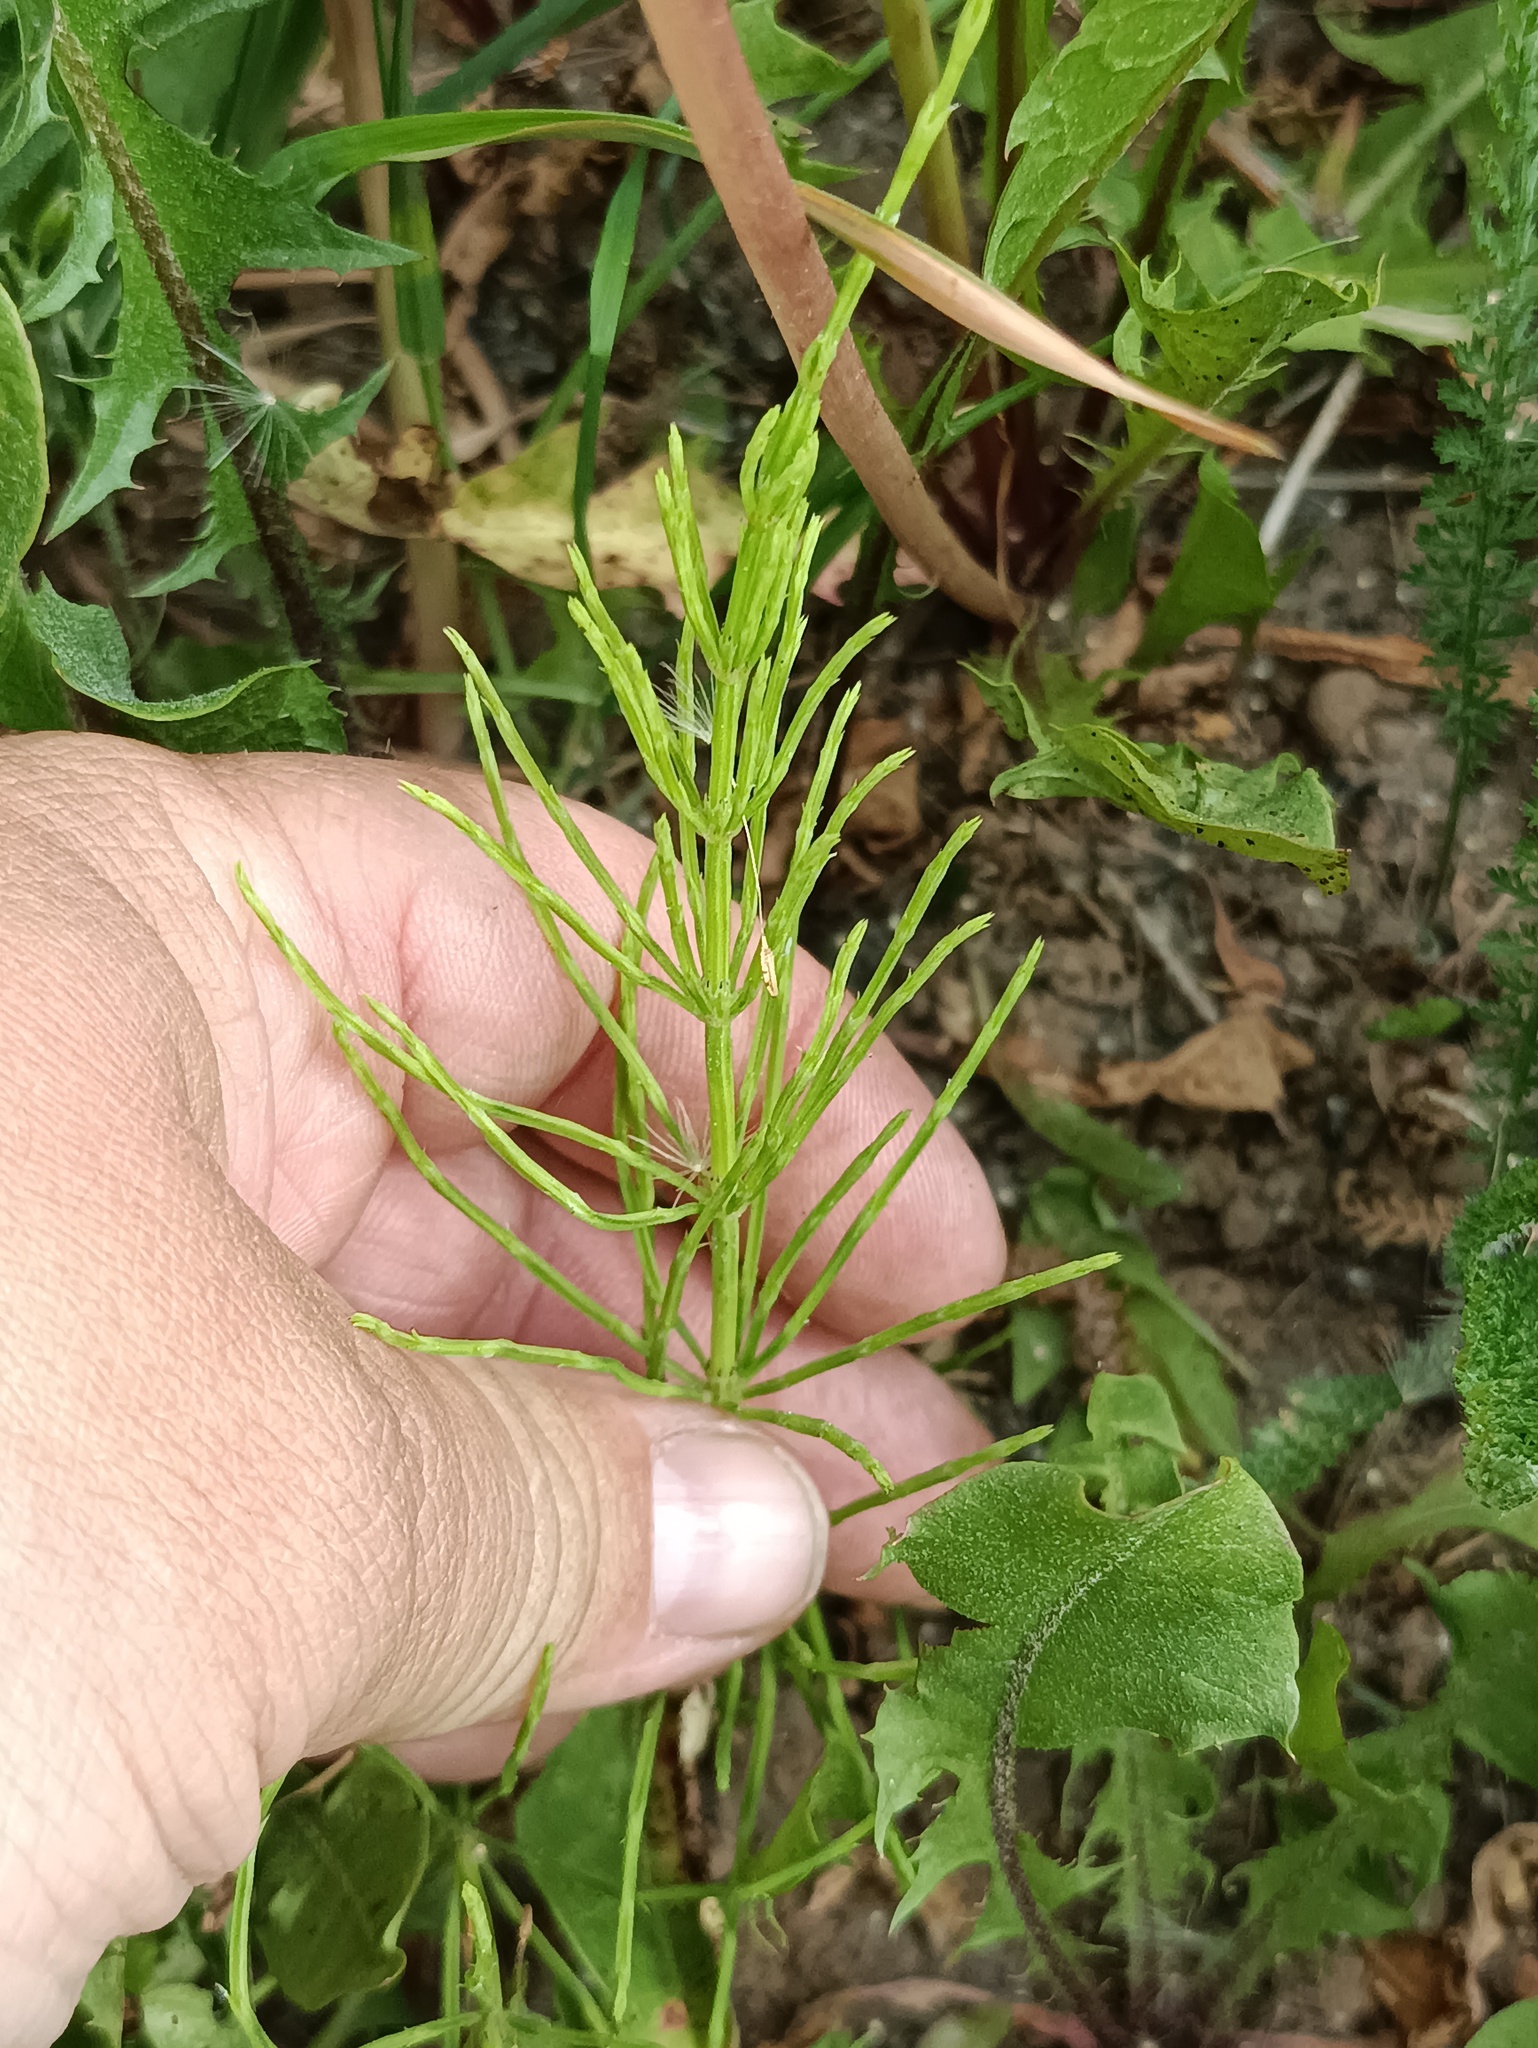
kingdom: Plantae
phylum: Tracheophyta
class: Polypodiopsida
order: Equisetales
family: Equisetaceae
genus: Equisetum
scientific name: Equisetum arvense
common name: Field horsetail
